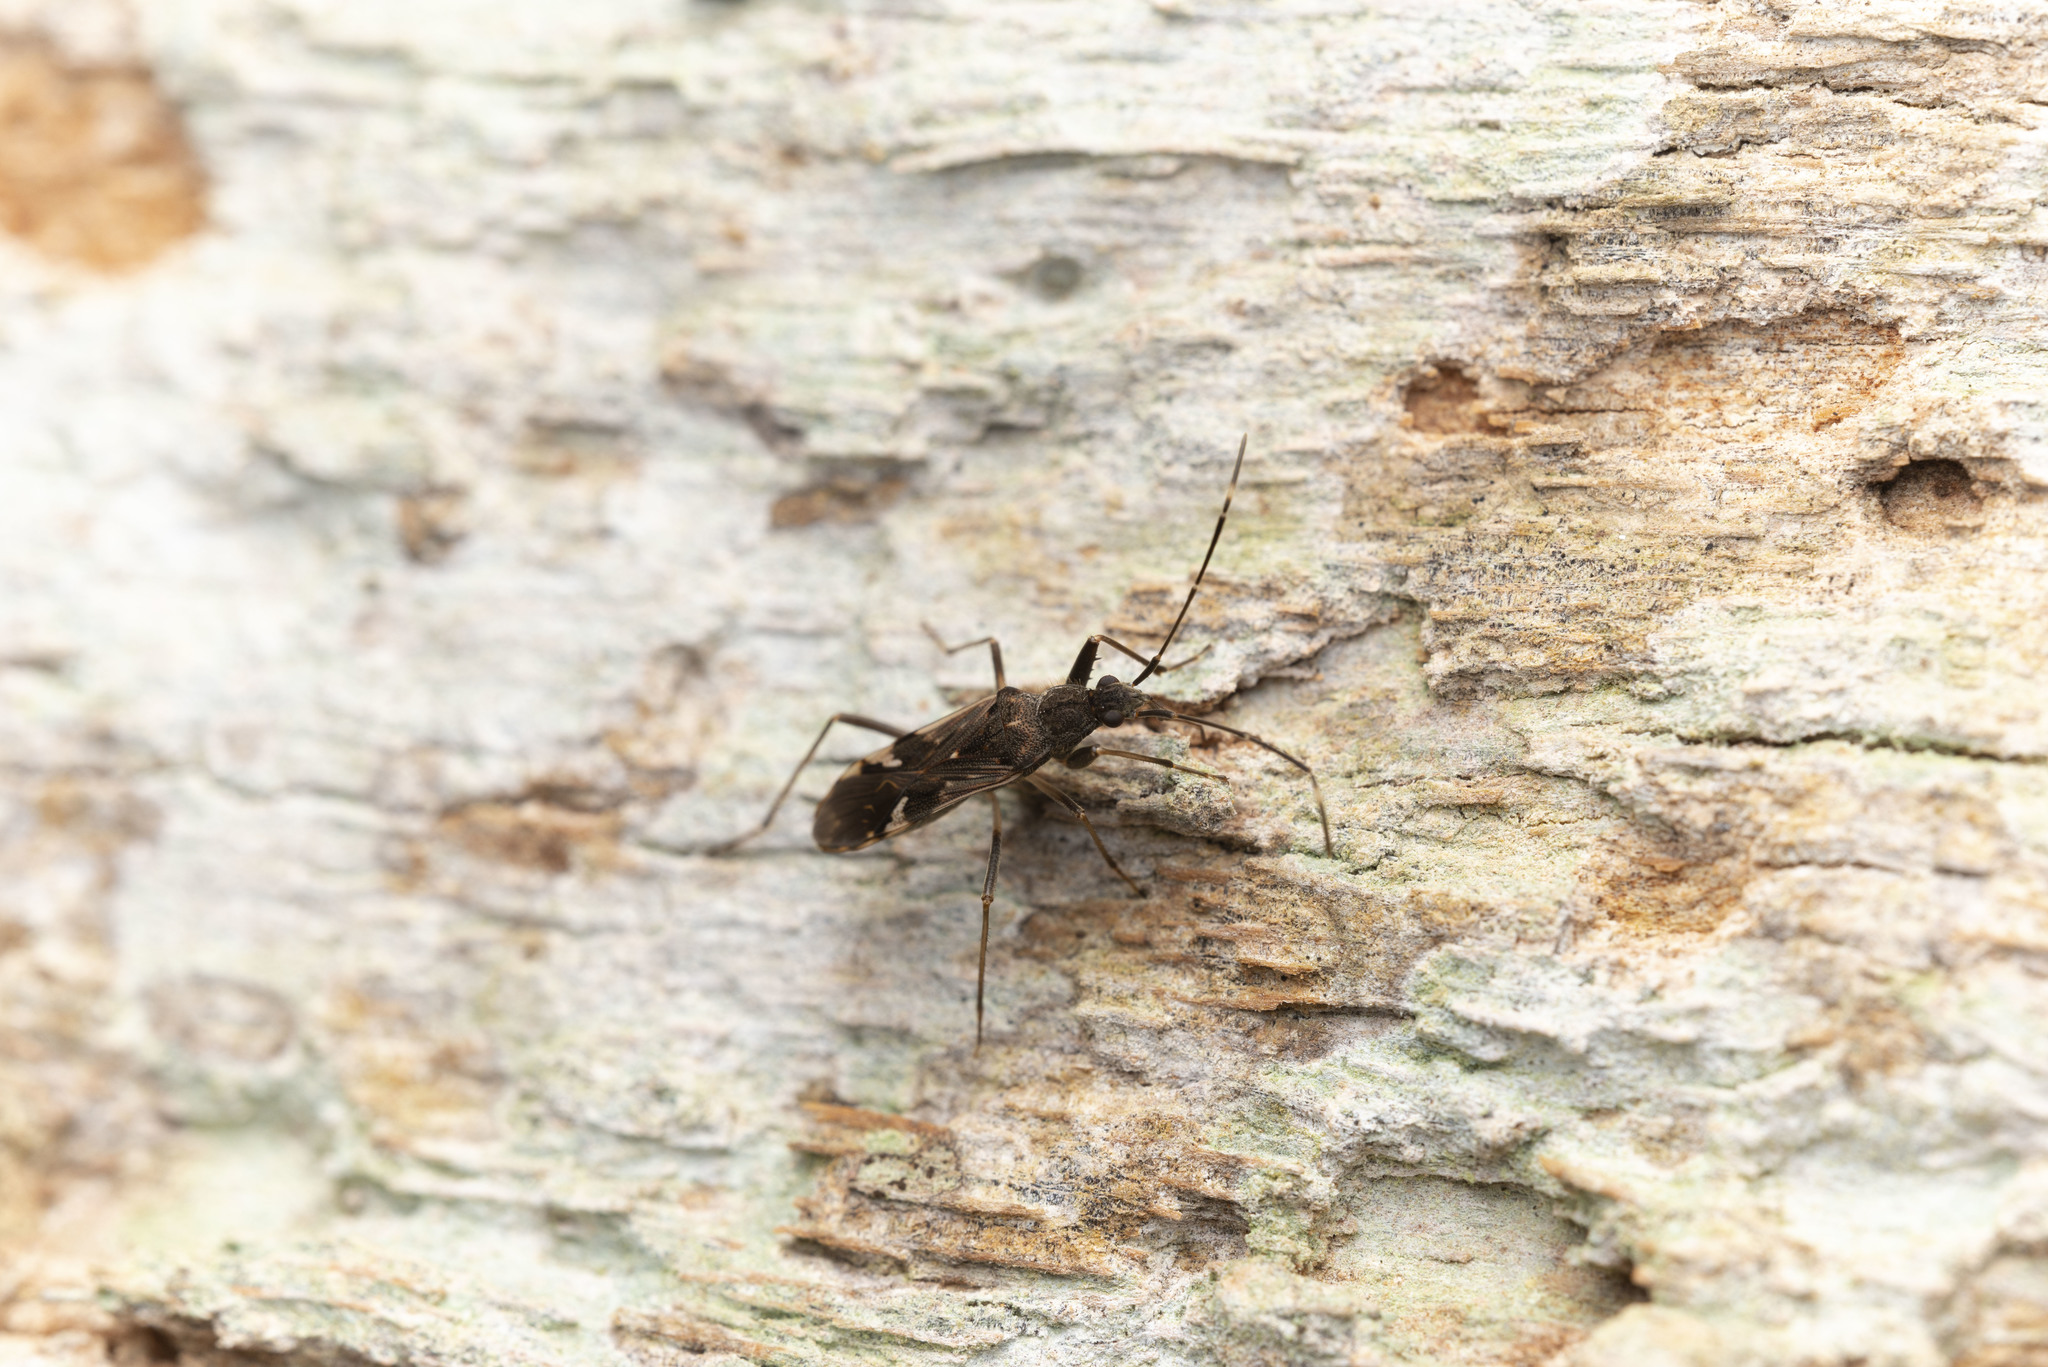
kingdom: Animalia
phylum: Arthropoda
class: Insecta
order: Hemiptera
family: Rhyparochromidae
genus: Metochus
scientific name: Metochus hainanensis
